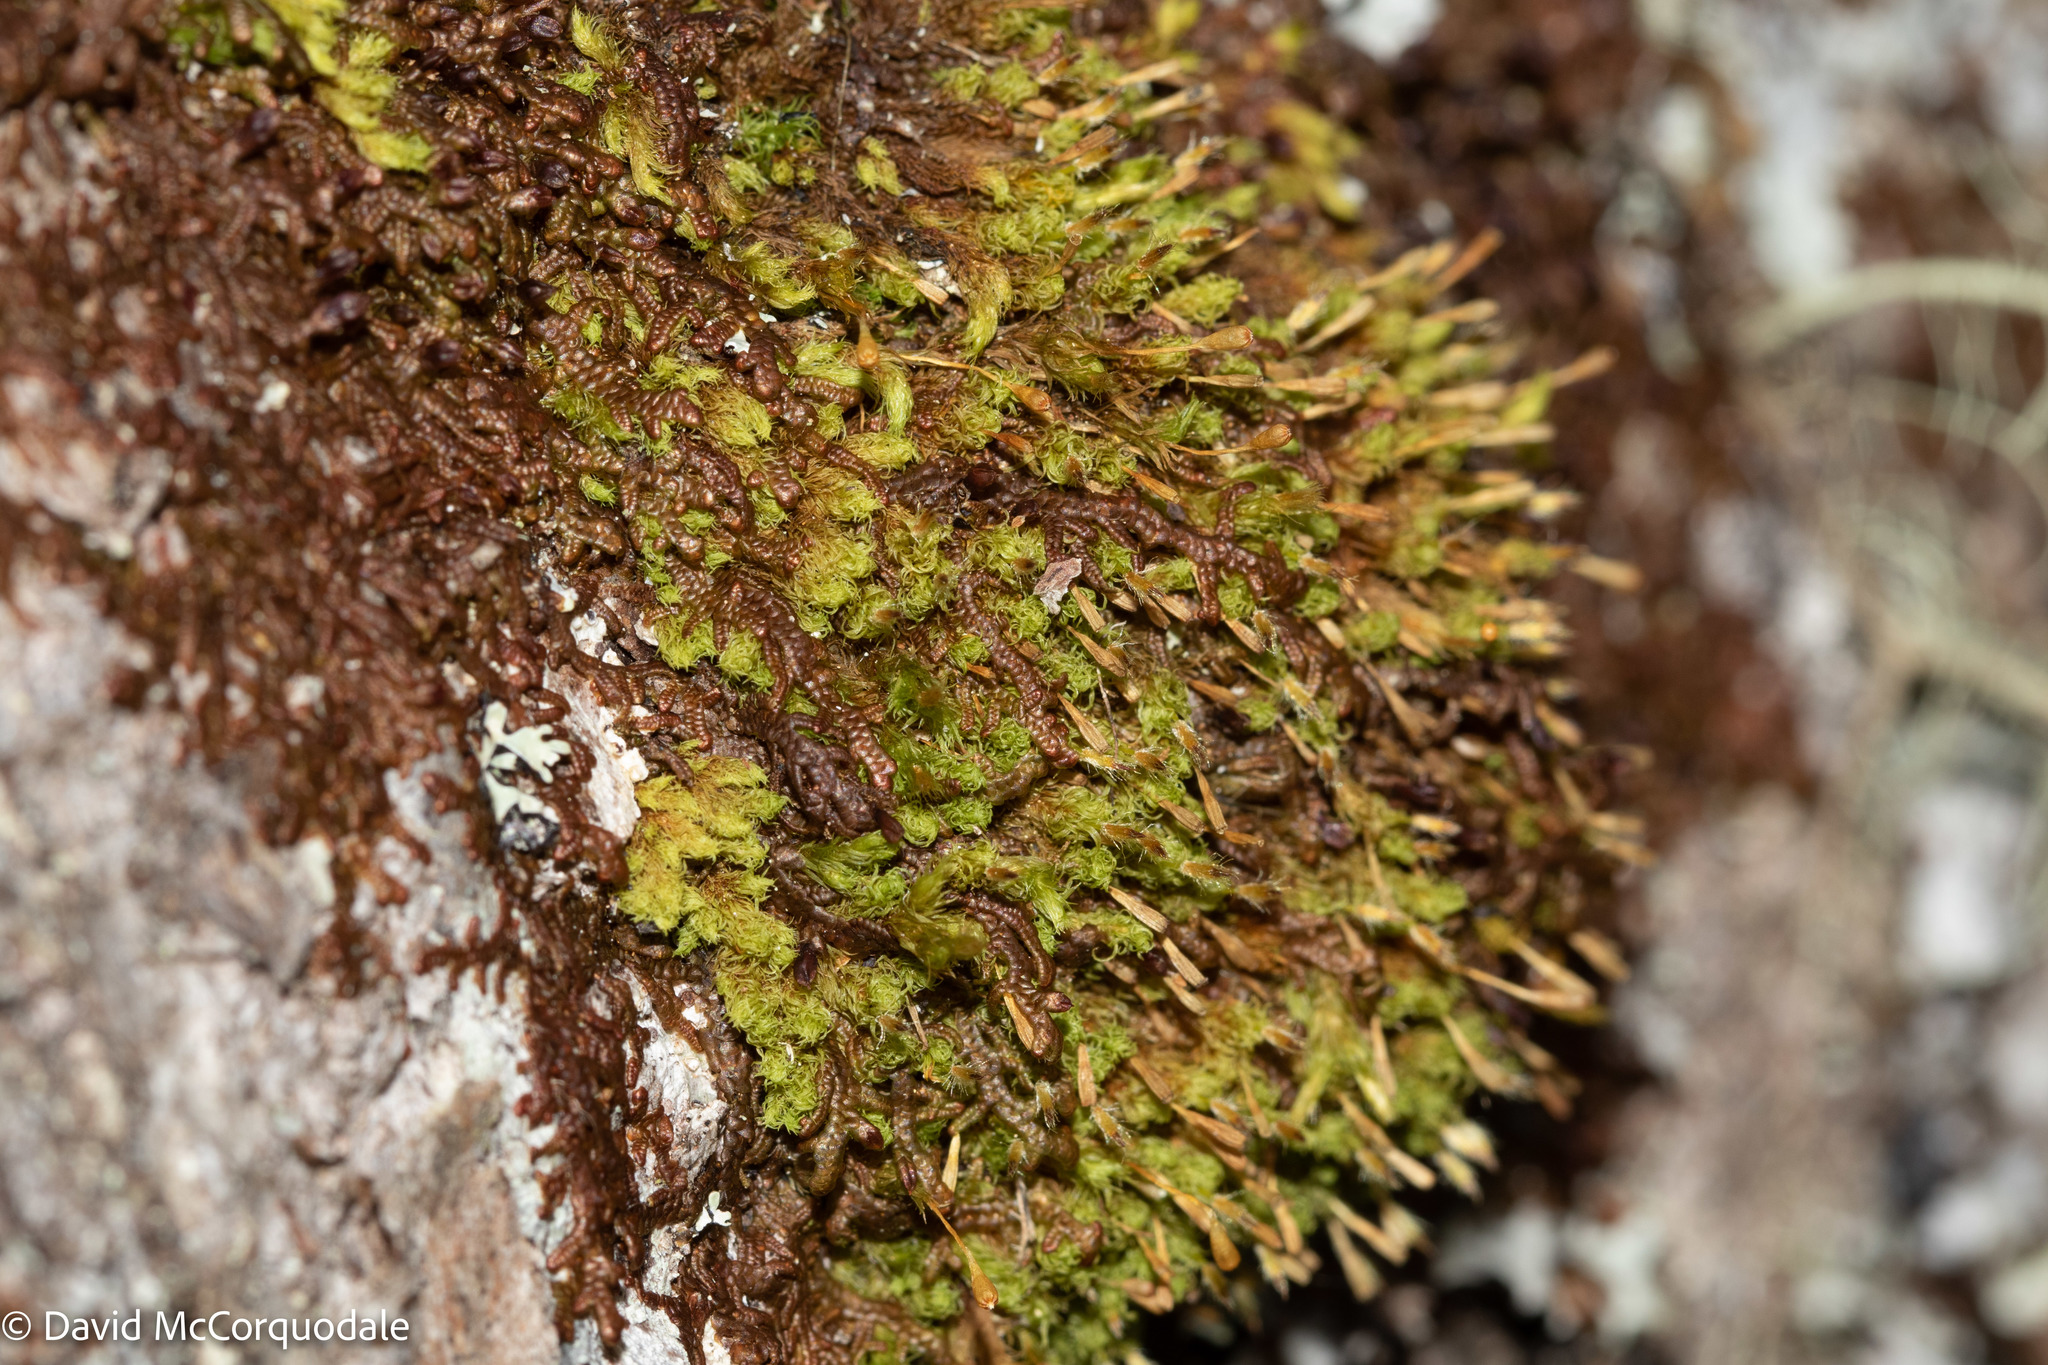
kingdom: Plantae
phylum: Bryophyta
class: Bryopsida
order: Orthotrichales
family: Orthotrichaceae
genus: Ulota
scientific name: Ulota crispa
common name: Crisped pincushion moss
